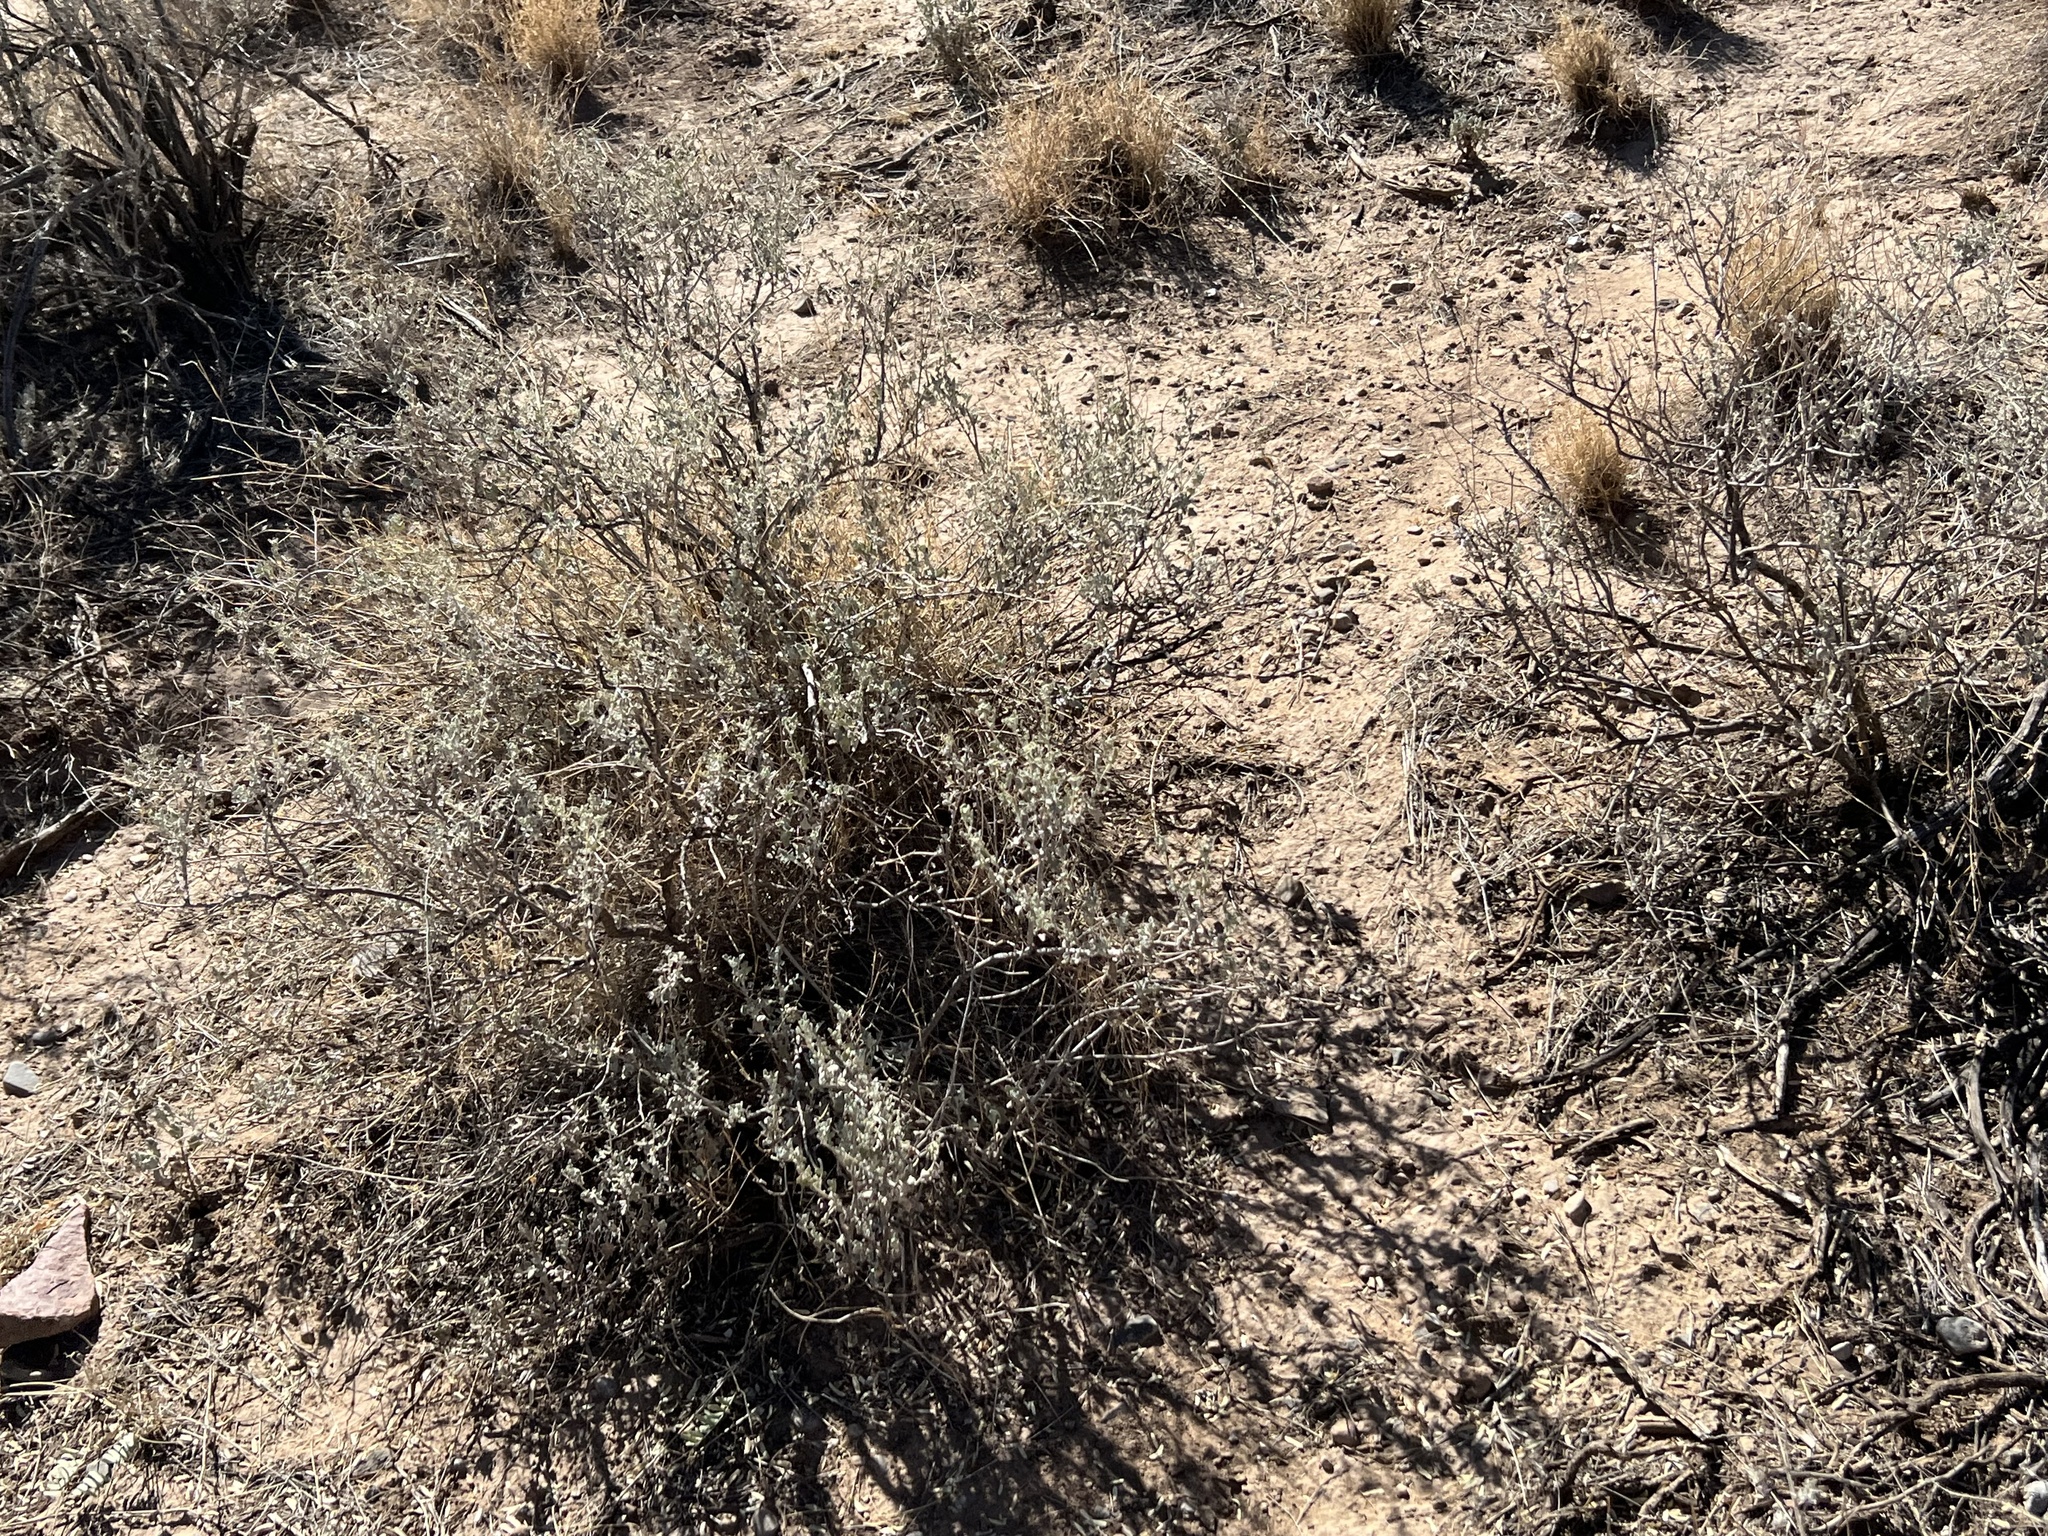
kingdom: Plantae
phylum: Tracheophyta
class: Magnoliopsida
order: Asterales
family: Asteraceae
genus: Parthenium
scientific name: Parthenium incanum
